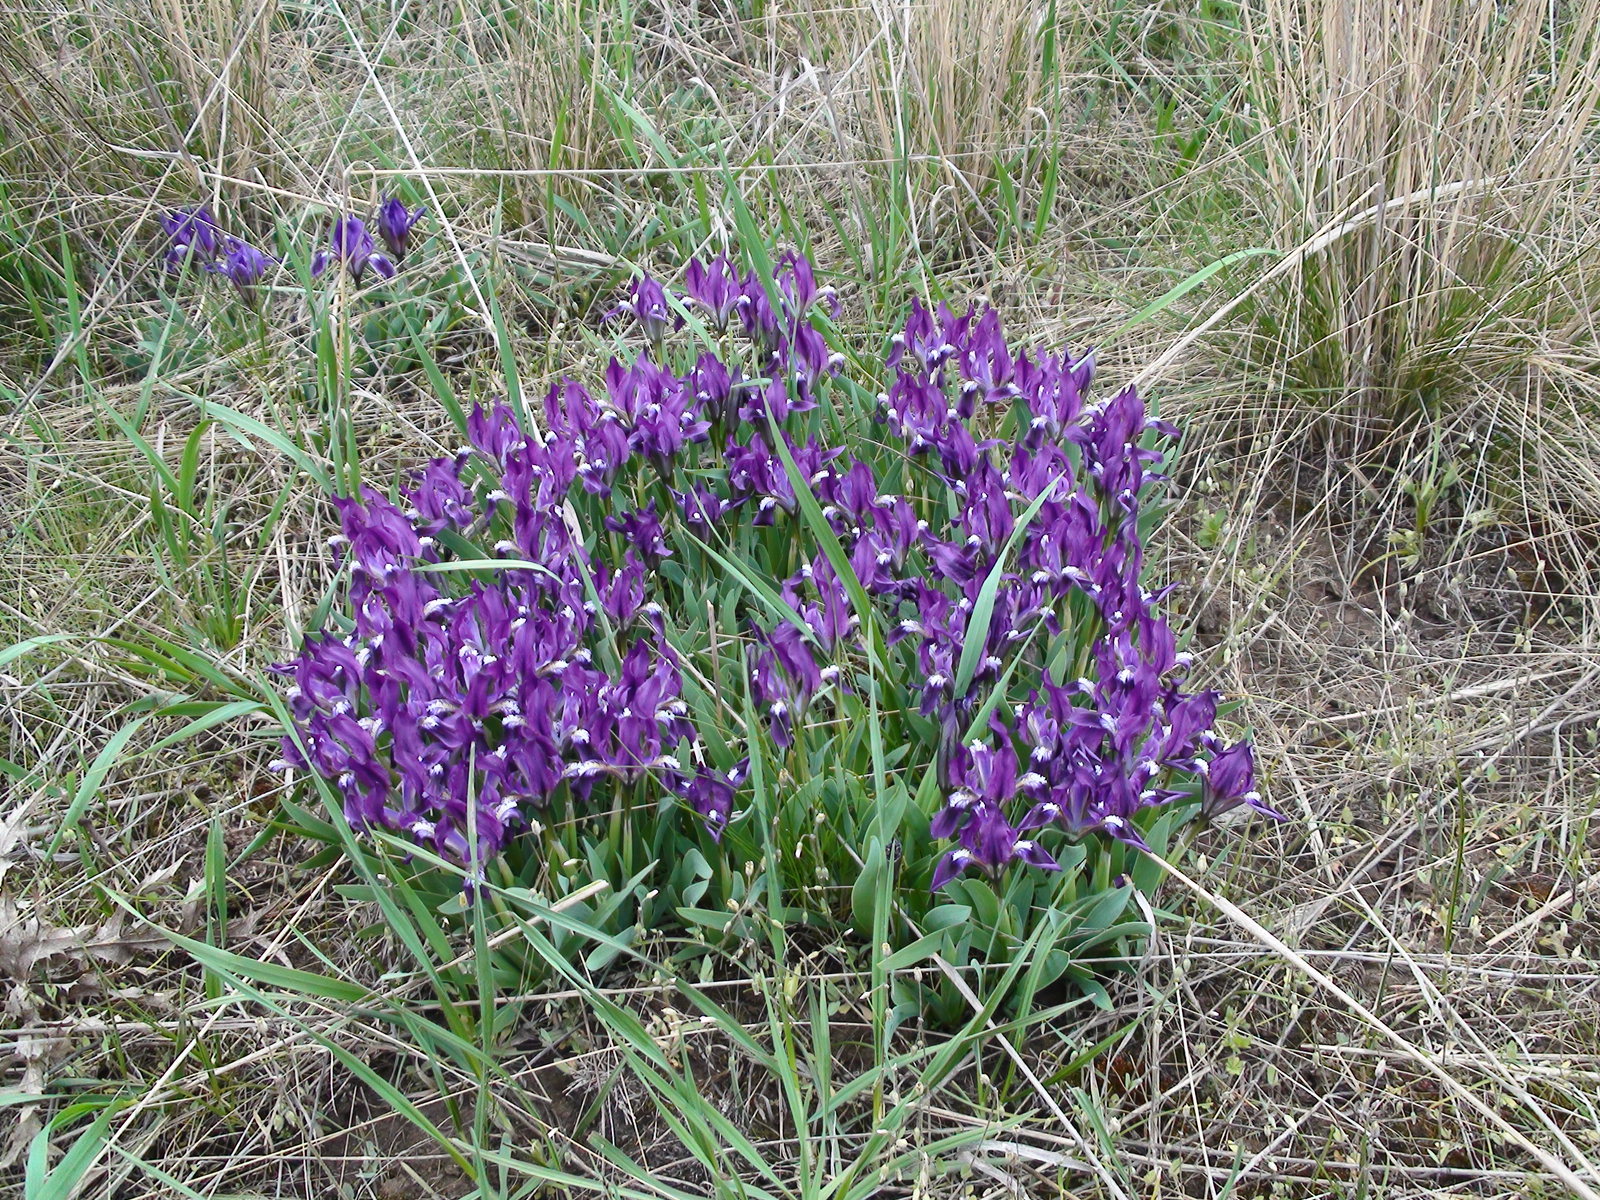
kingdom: Plantae
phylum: Tracheophyta
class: Liliopsida
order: Asparagales
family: Iridaceae
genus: Iris
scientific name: Iris pumila
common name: Dwarf iris
